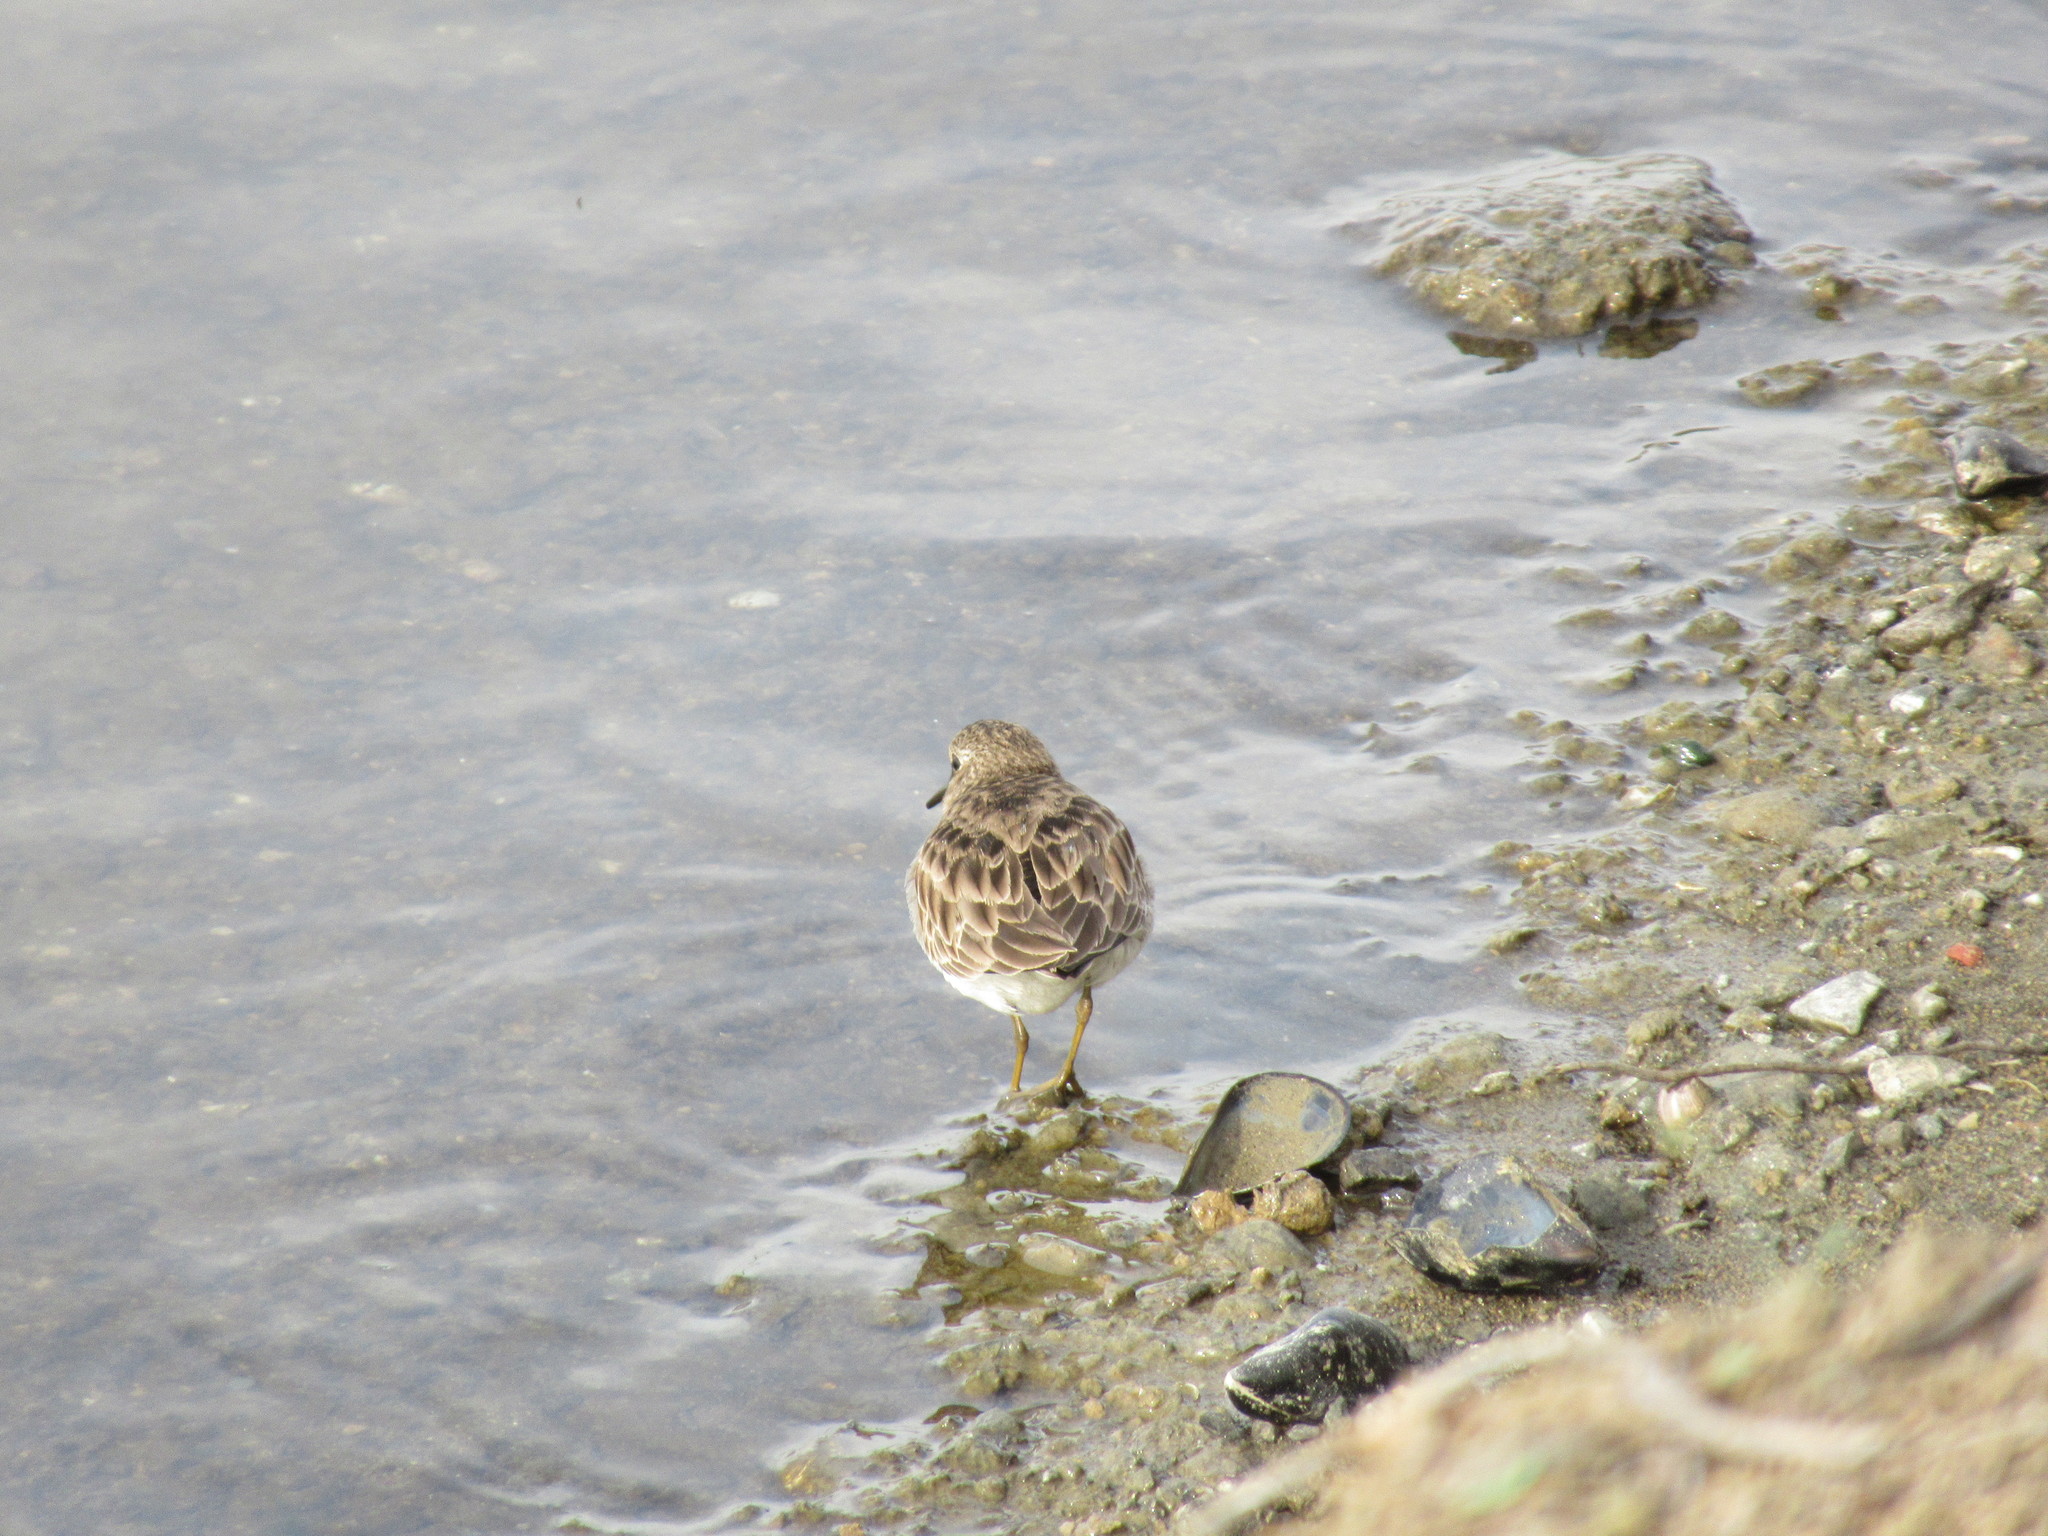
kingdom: Animalia
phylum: Chordata
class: Aves
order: Charadriiformes
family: Scolopacidae
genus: Calidris
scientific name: Calidris minutilla
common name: Least sandpiper
